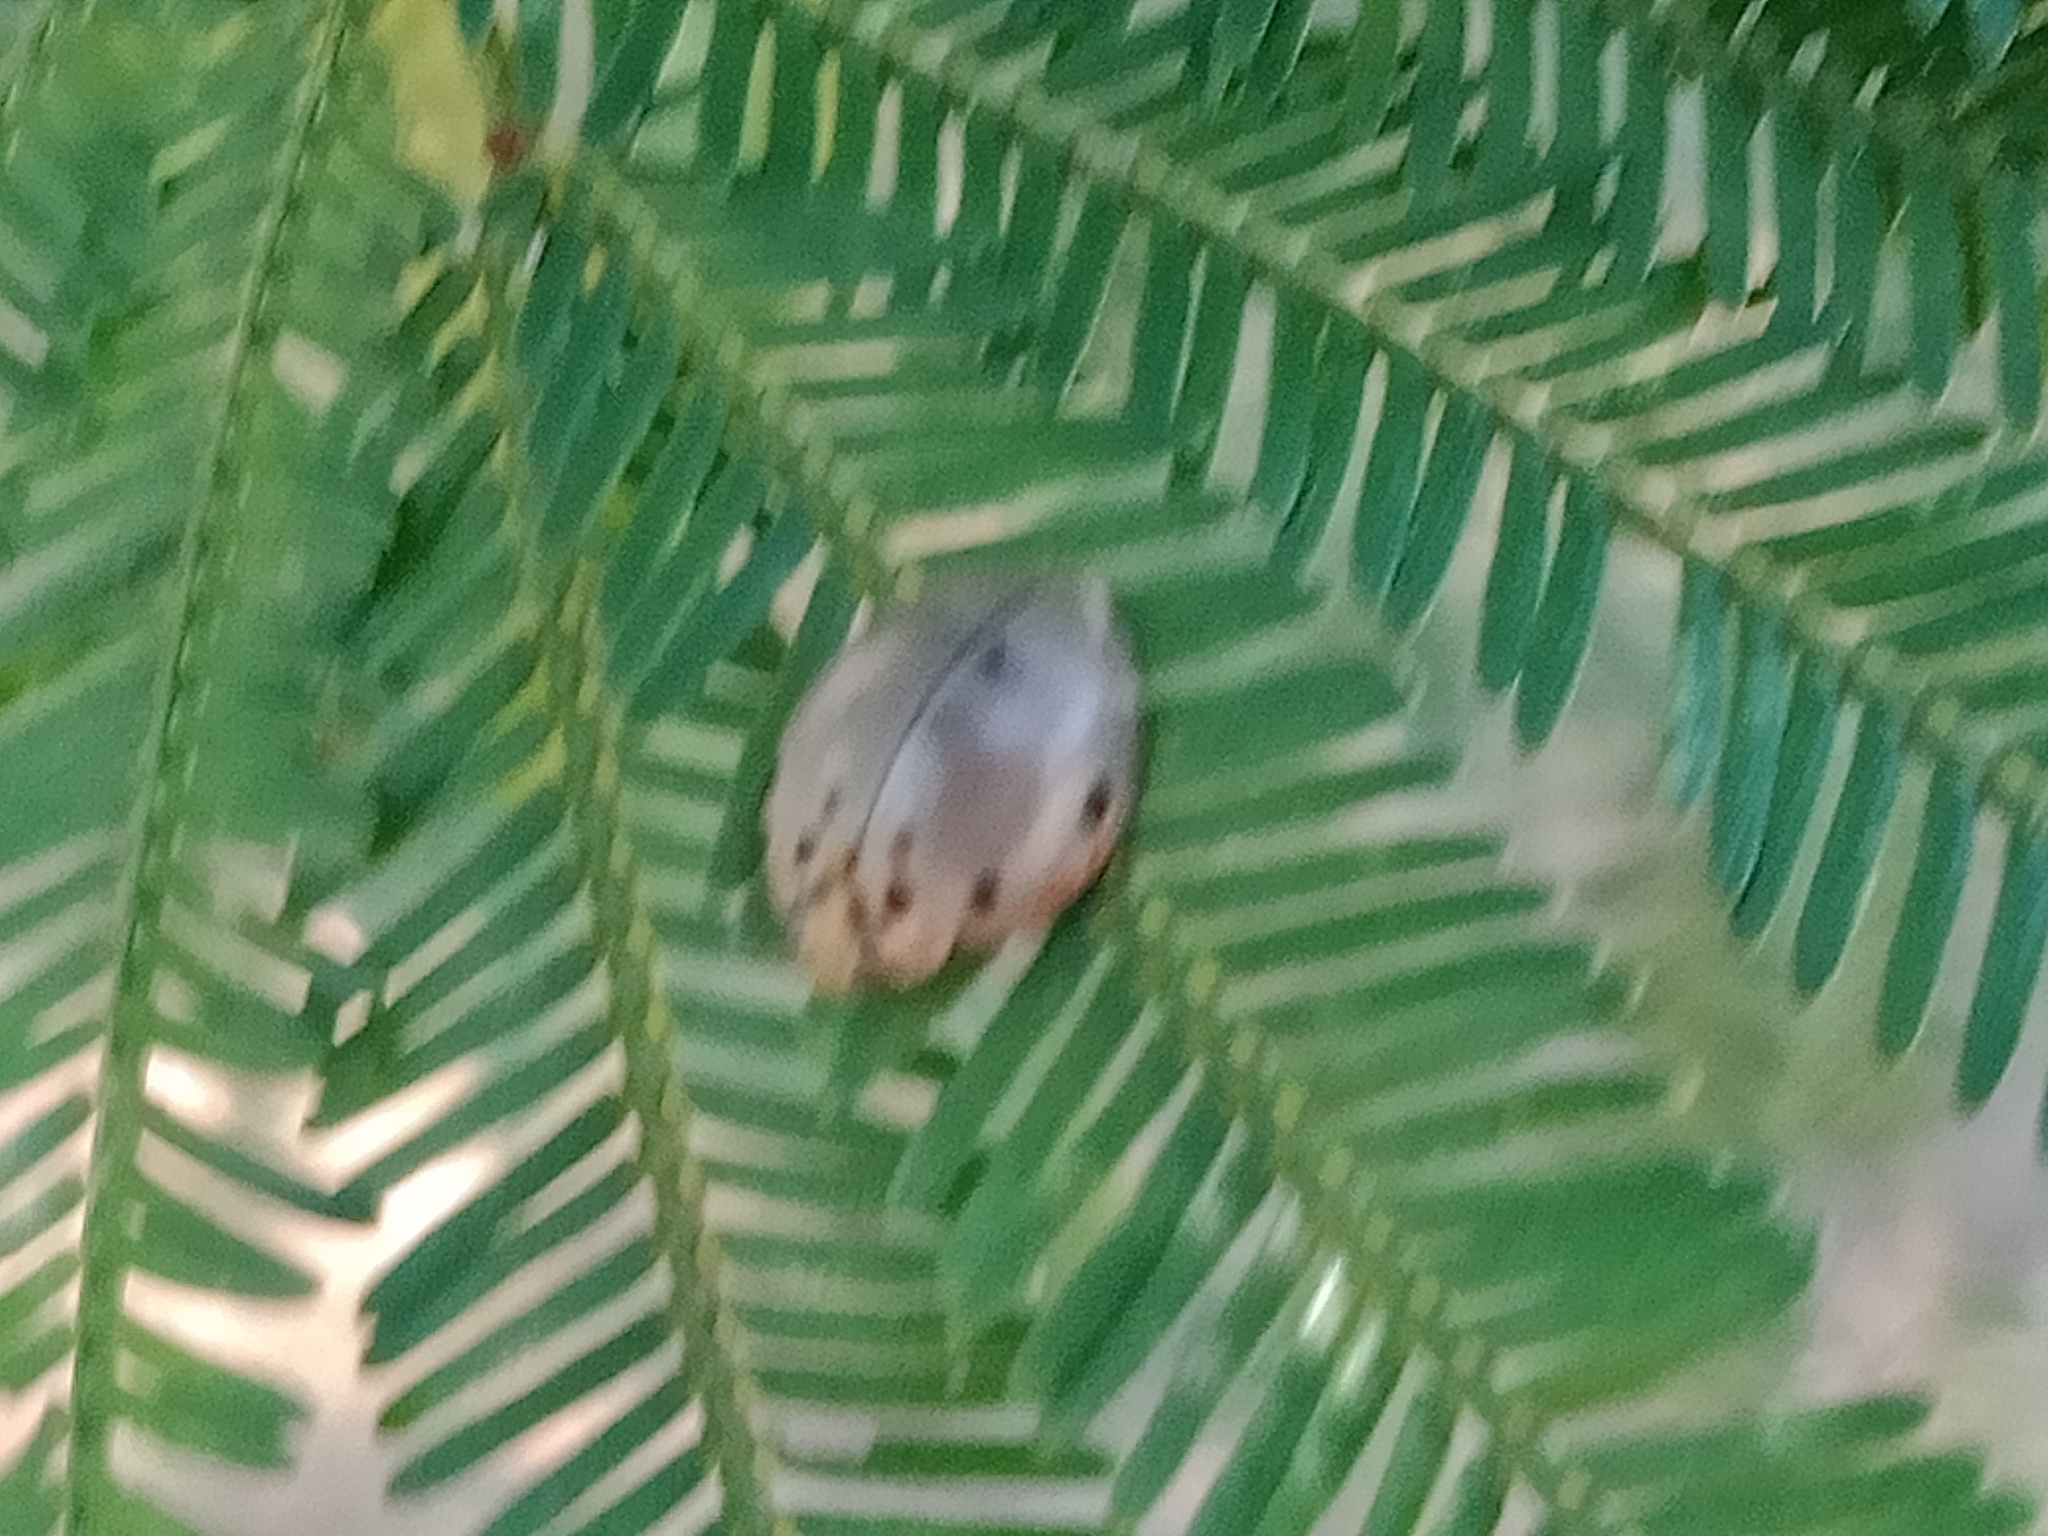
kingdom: Animalia
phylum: Arthropoda
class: Insecta
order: Coleoptera
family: Coccinellidae
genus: Archegleis
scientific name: Archegleis
